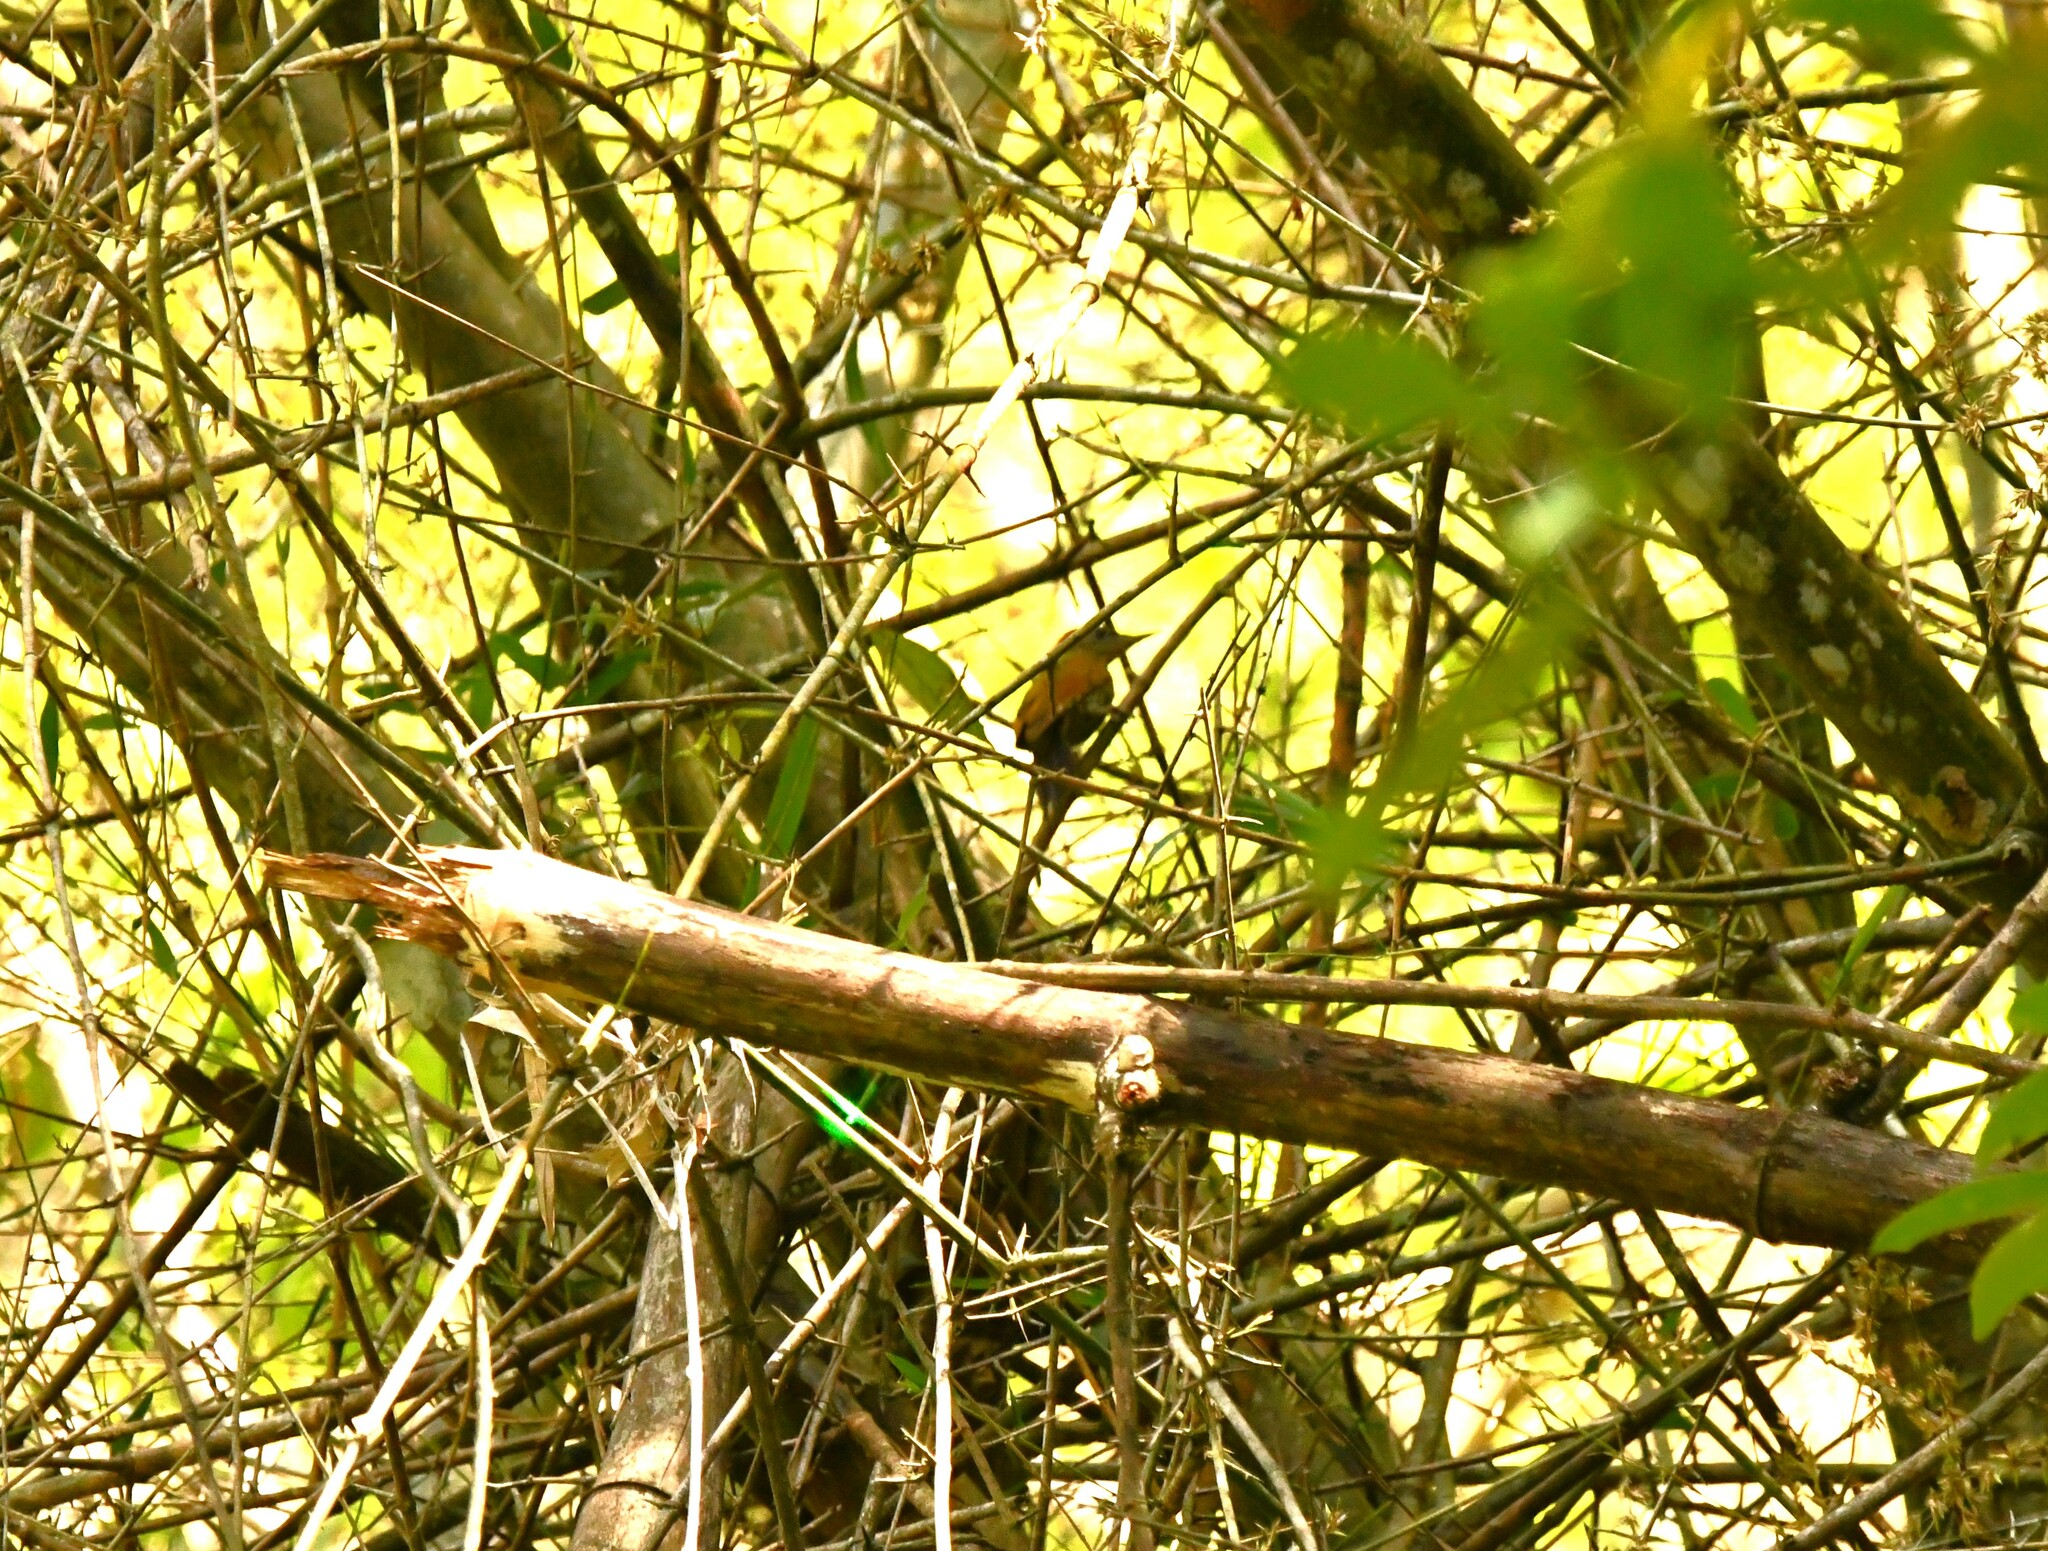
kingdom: Animalia
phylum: Chordata
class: Aves
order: Piciformes
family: Picidae
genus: Micropternus
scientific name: Micropternus brachyurus
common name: Rufous woodpecker
